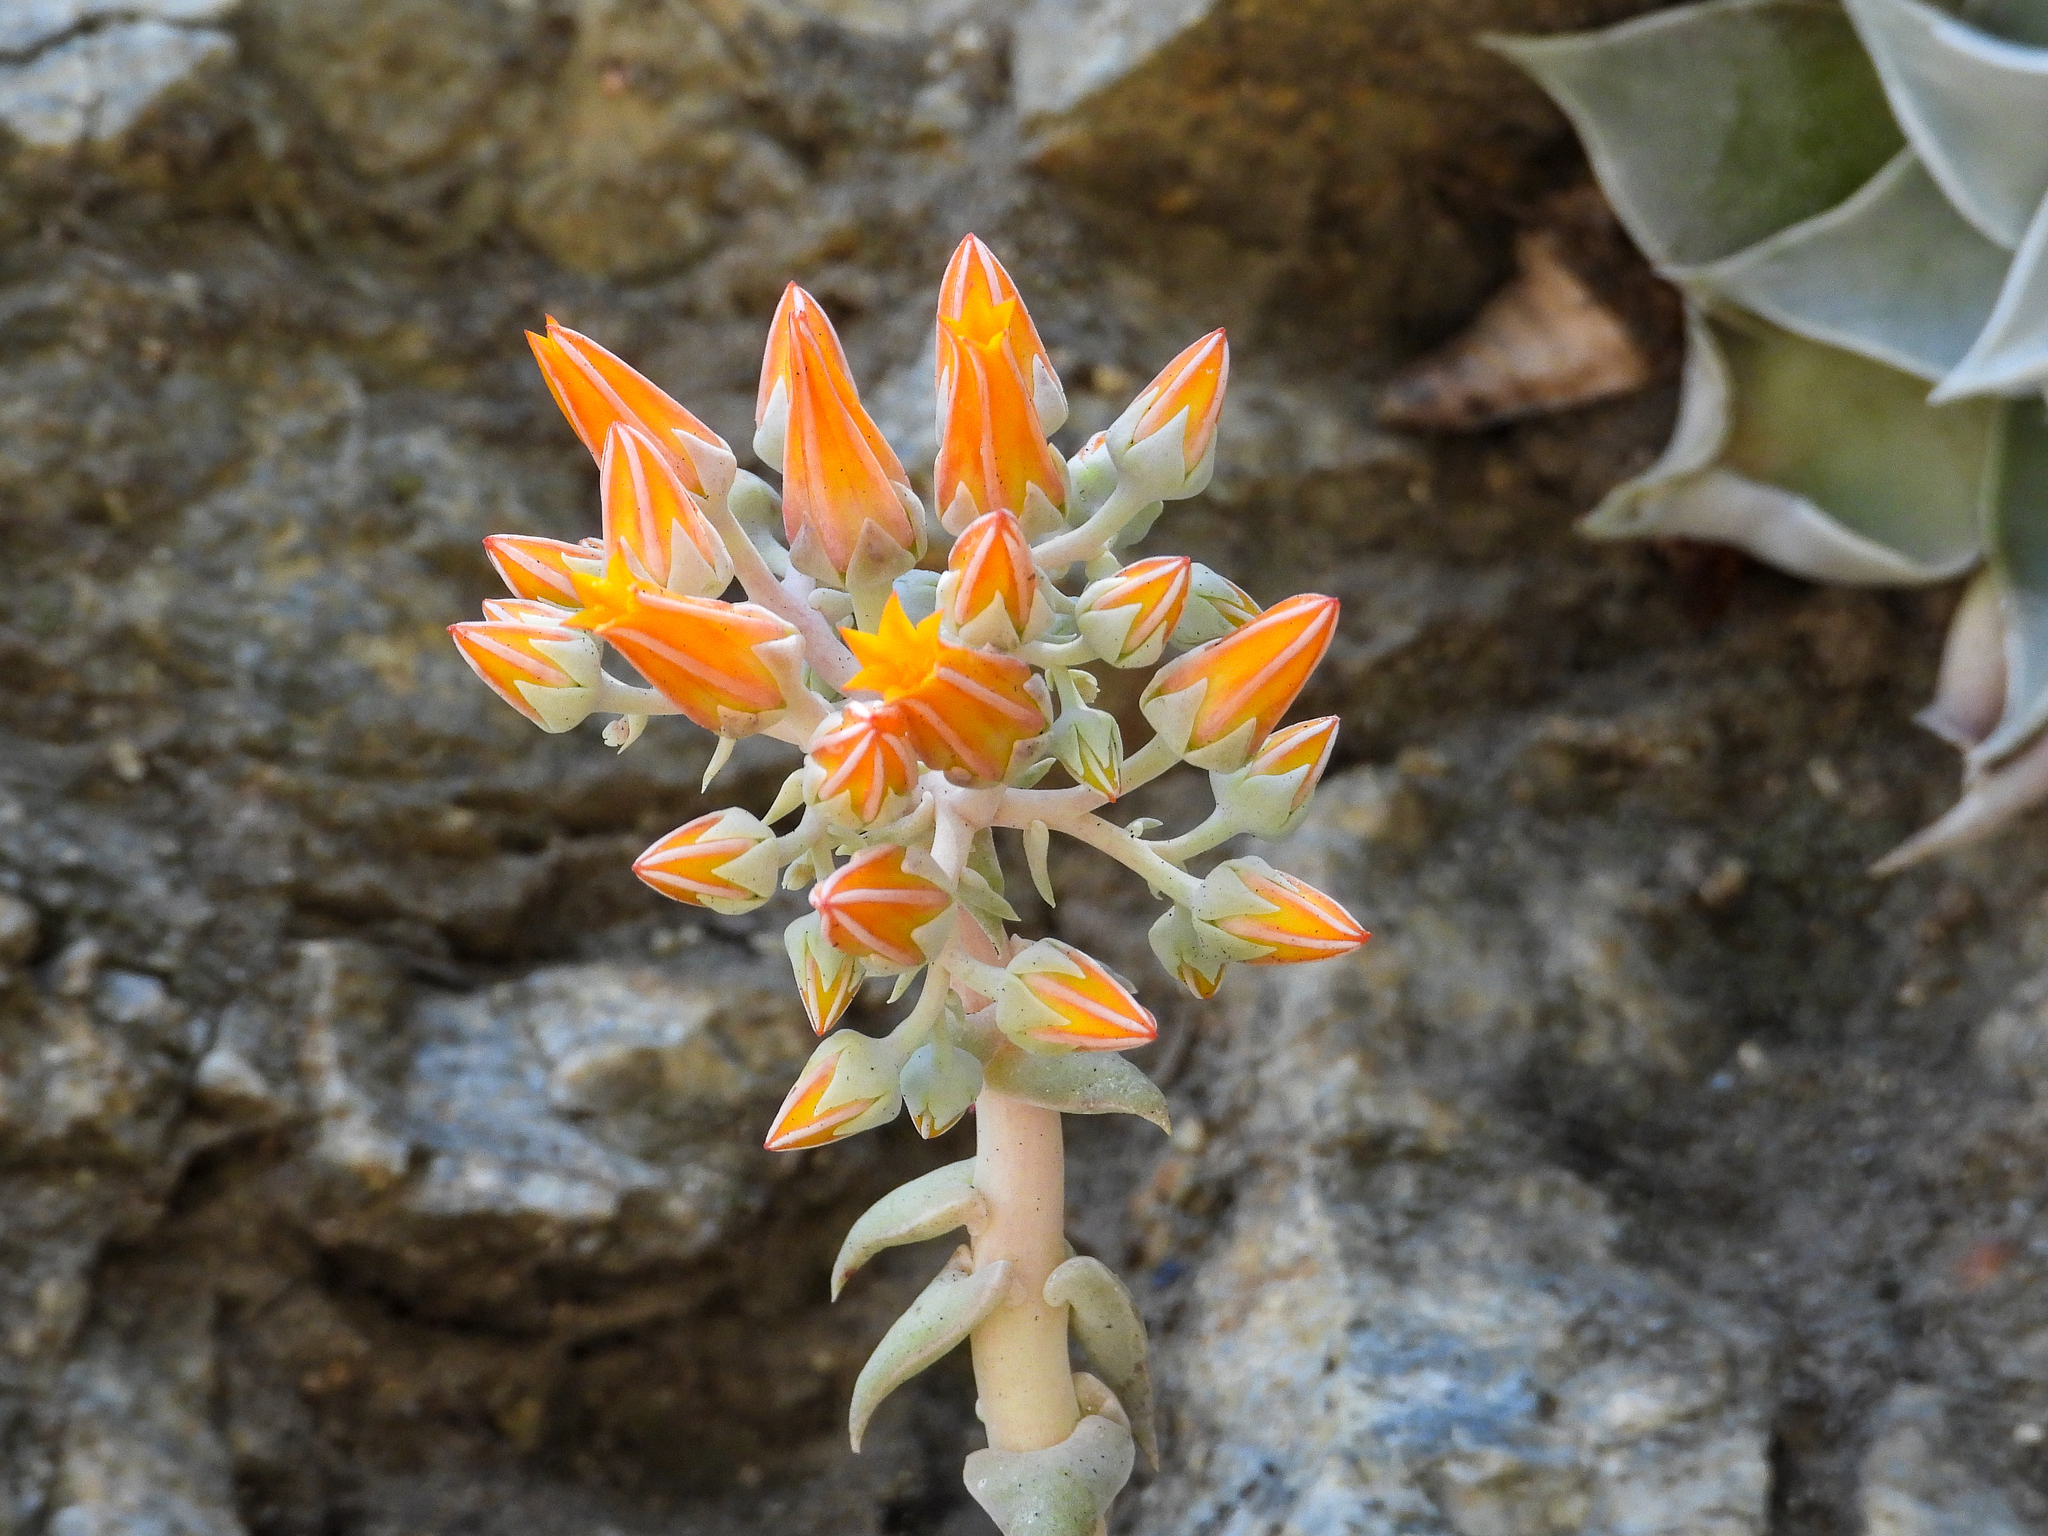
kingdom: Plantae
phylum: Tracheophyta
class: Magnoliopsida
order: Saxifragales
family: Crassulaceae
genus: Dudleya
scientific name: Dudleya cymosa
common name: Canyon dudleya
